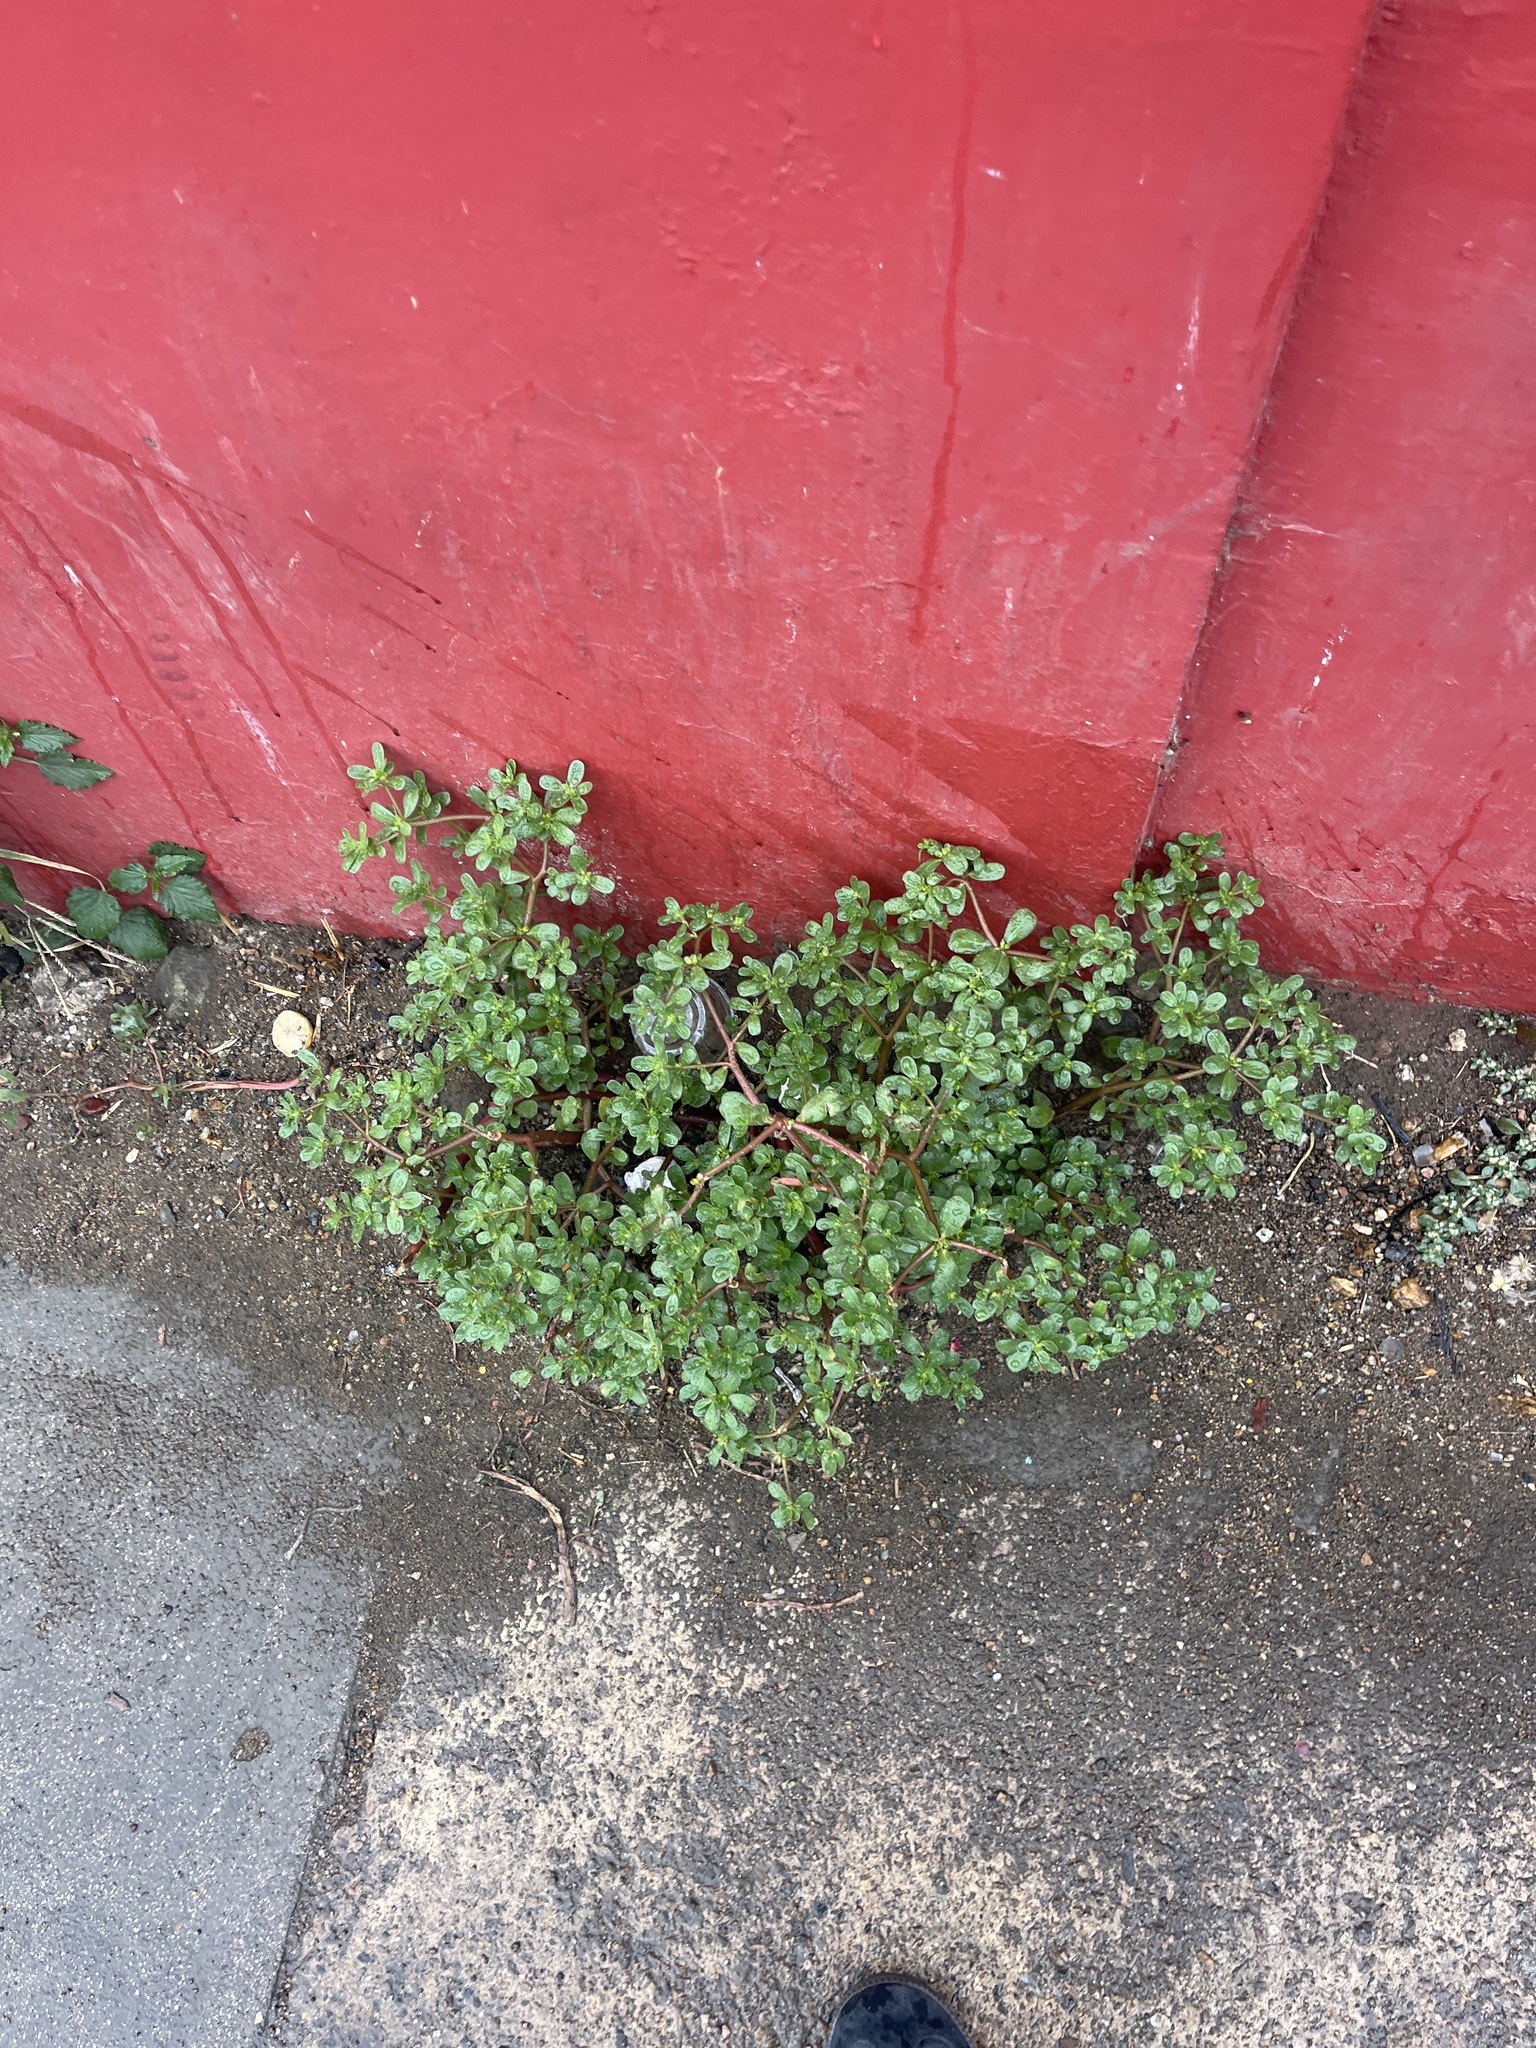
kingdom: Plantae
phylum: Tracheophyta
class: Magnoliopsida
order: Caryophyllales
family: Portulacaceae
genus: Portulaca
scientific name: Portulaca oleracea
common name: Common purslane
